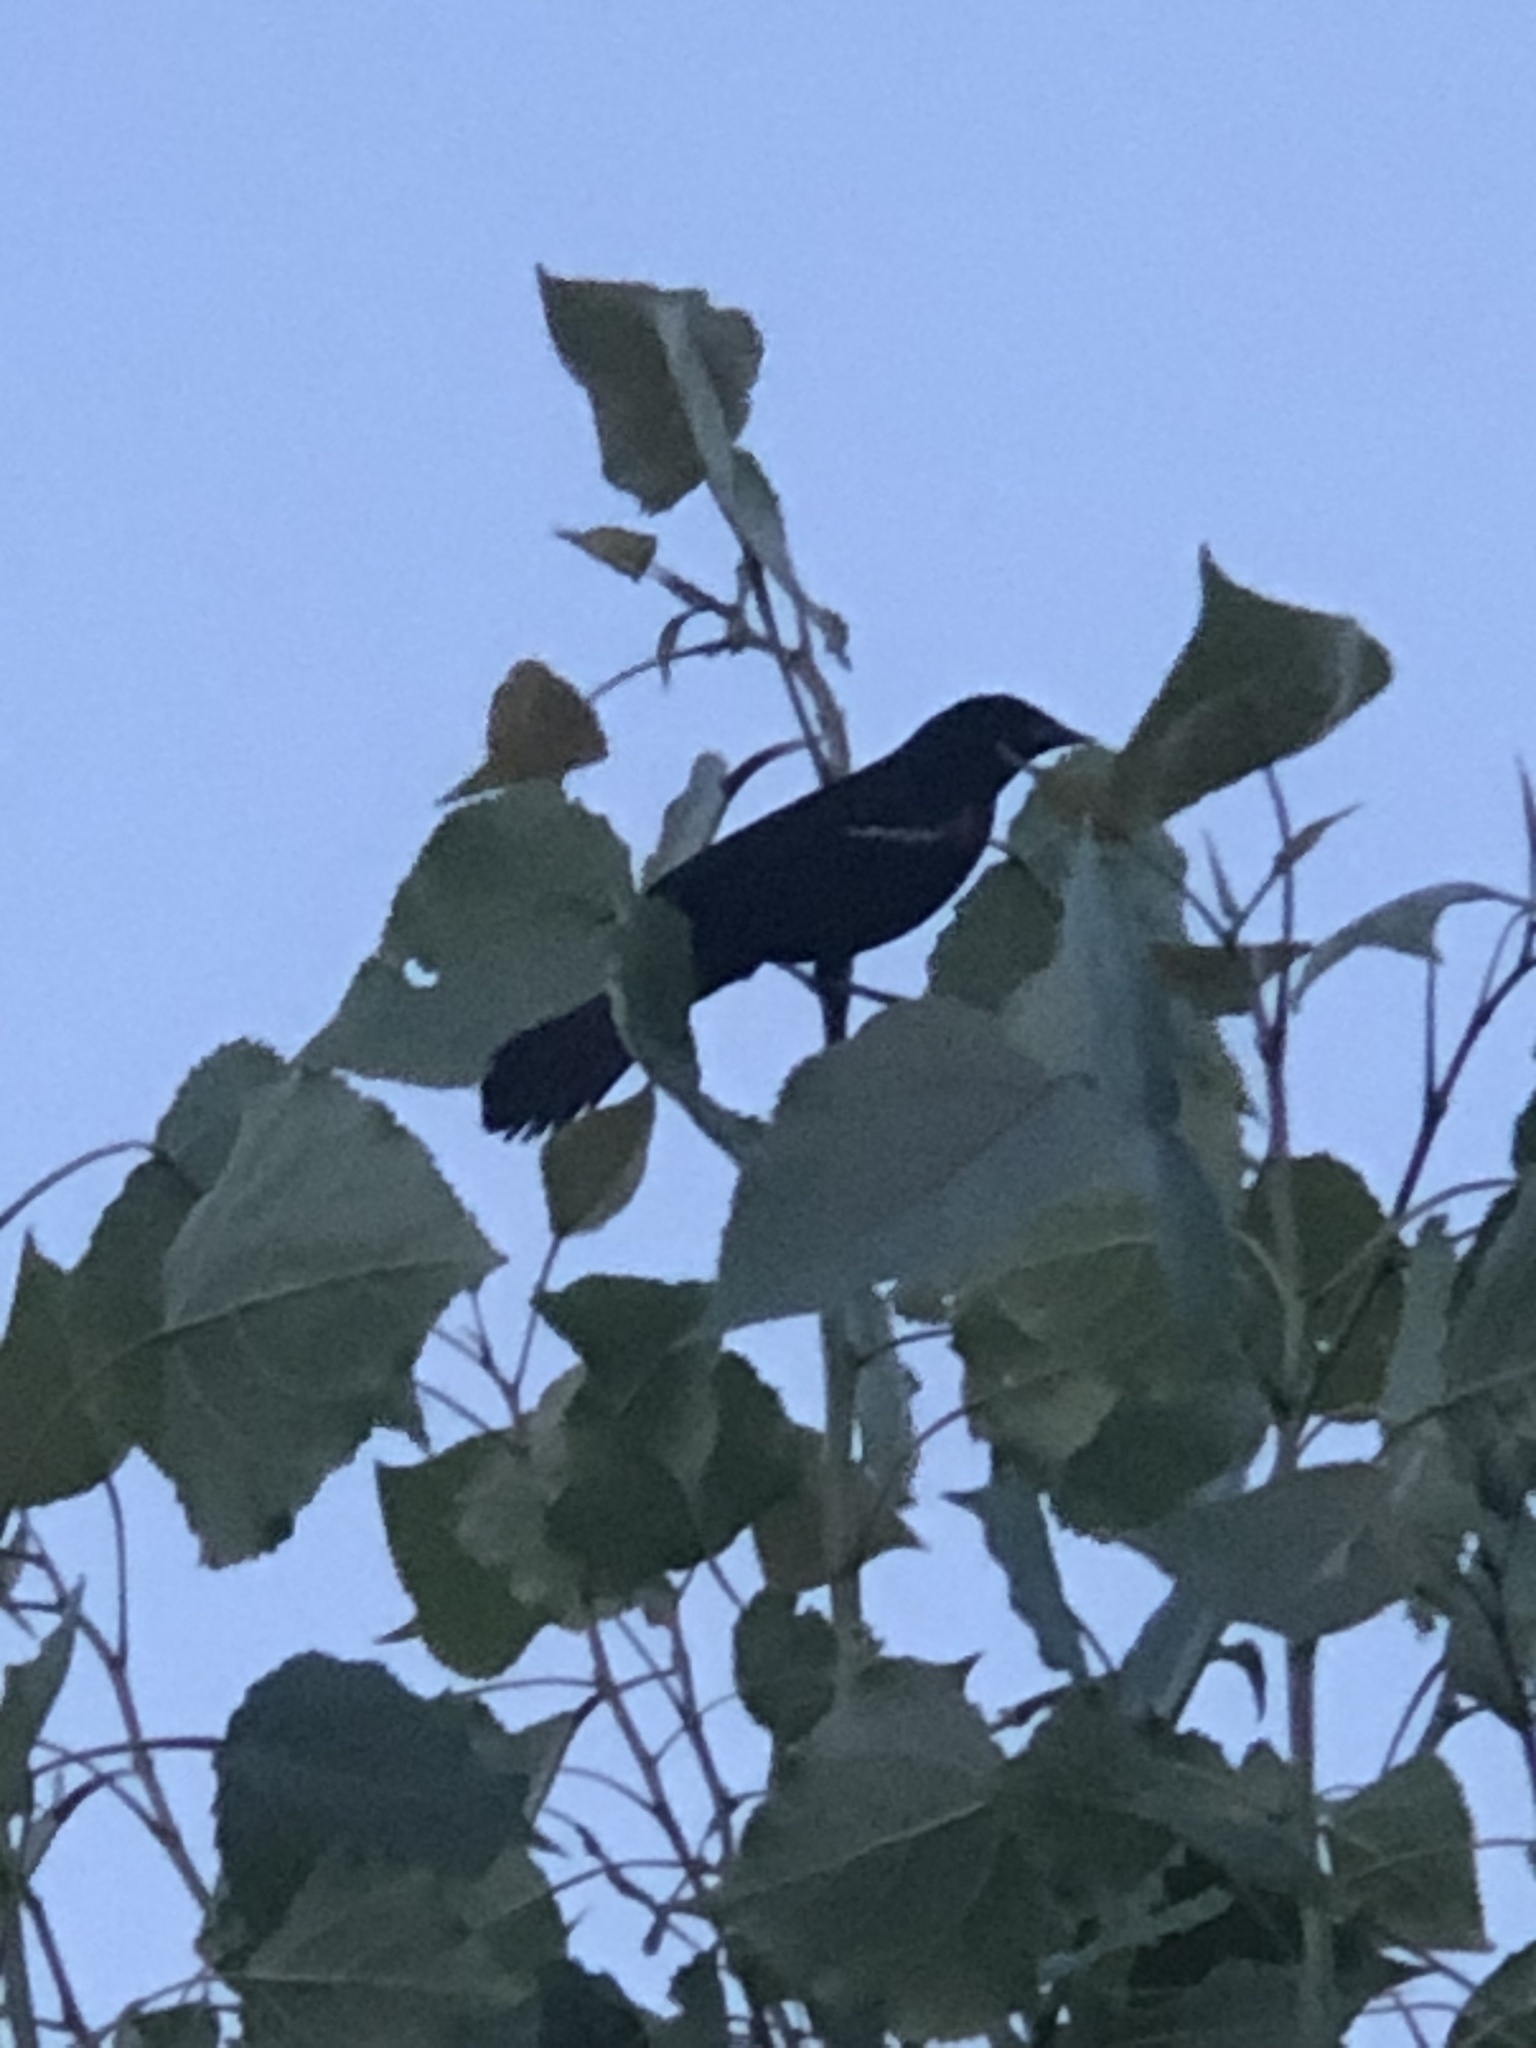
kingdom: Animalia
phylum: Chordata
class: Aves
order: Passeriformes
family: Icteridae
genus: Agelaius
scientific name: Agelaius phoeniceus
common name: Red-winged blackbird
